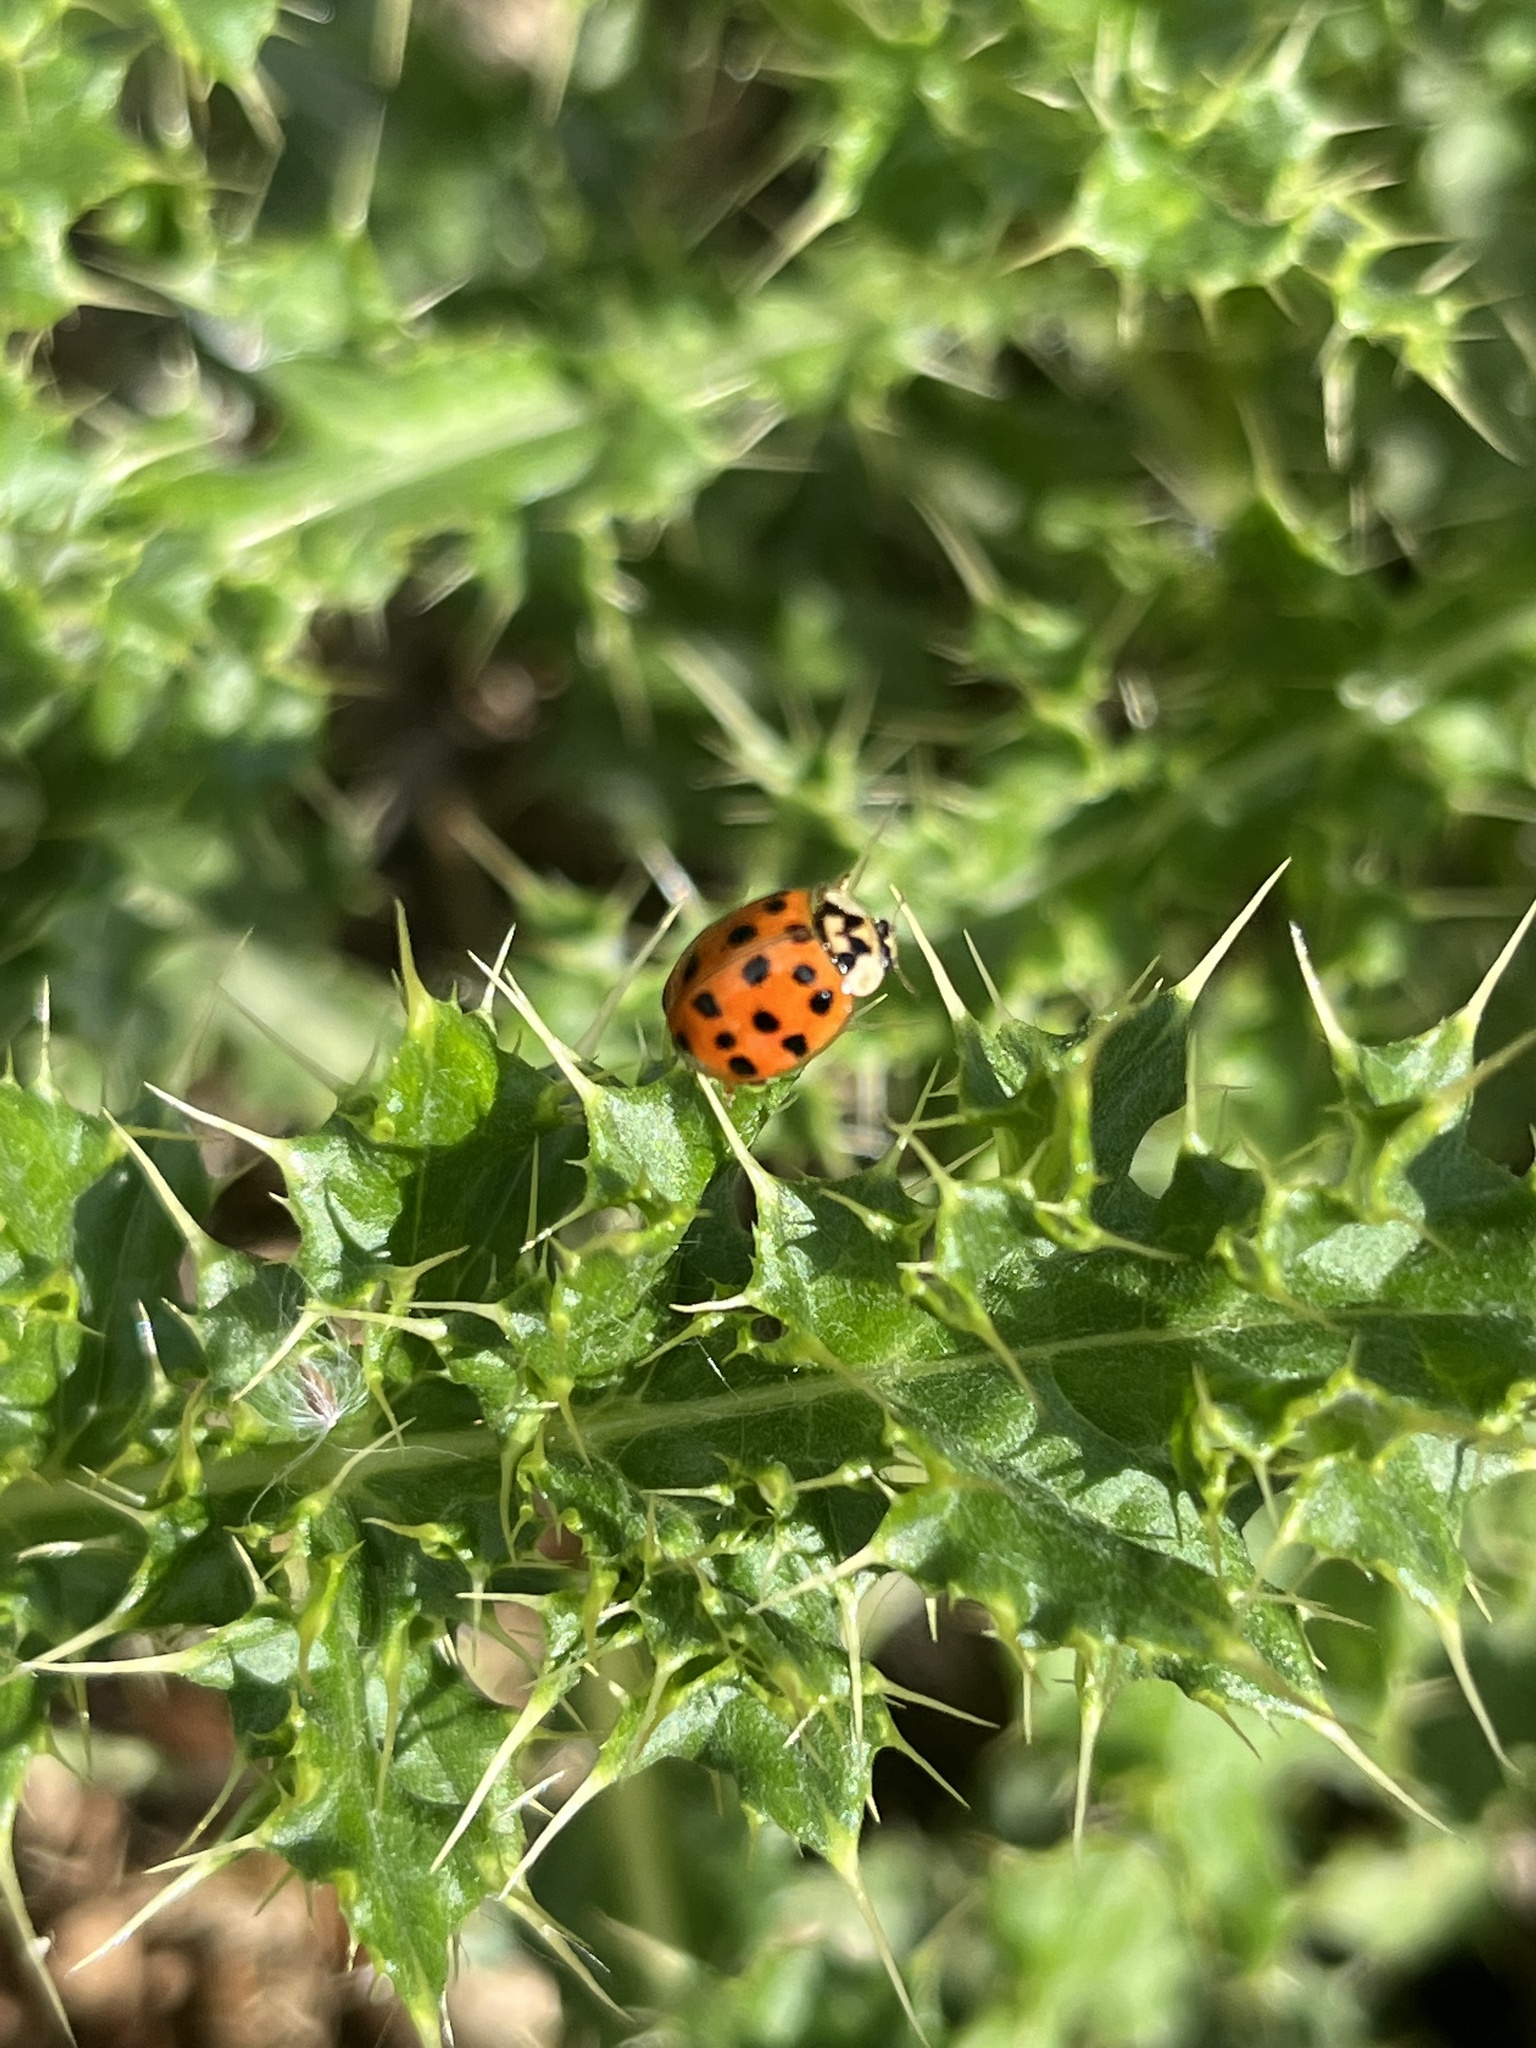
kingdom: Animalia
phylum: Arthropoda
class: Insecta
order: Coleoptera
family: Coccinellidae
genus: Harmonia
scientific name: Harmonia axyridis
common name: Harlequin ladybird
